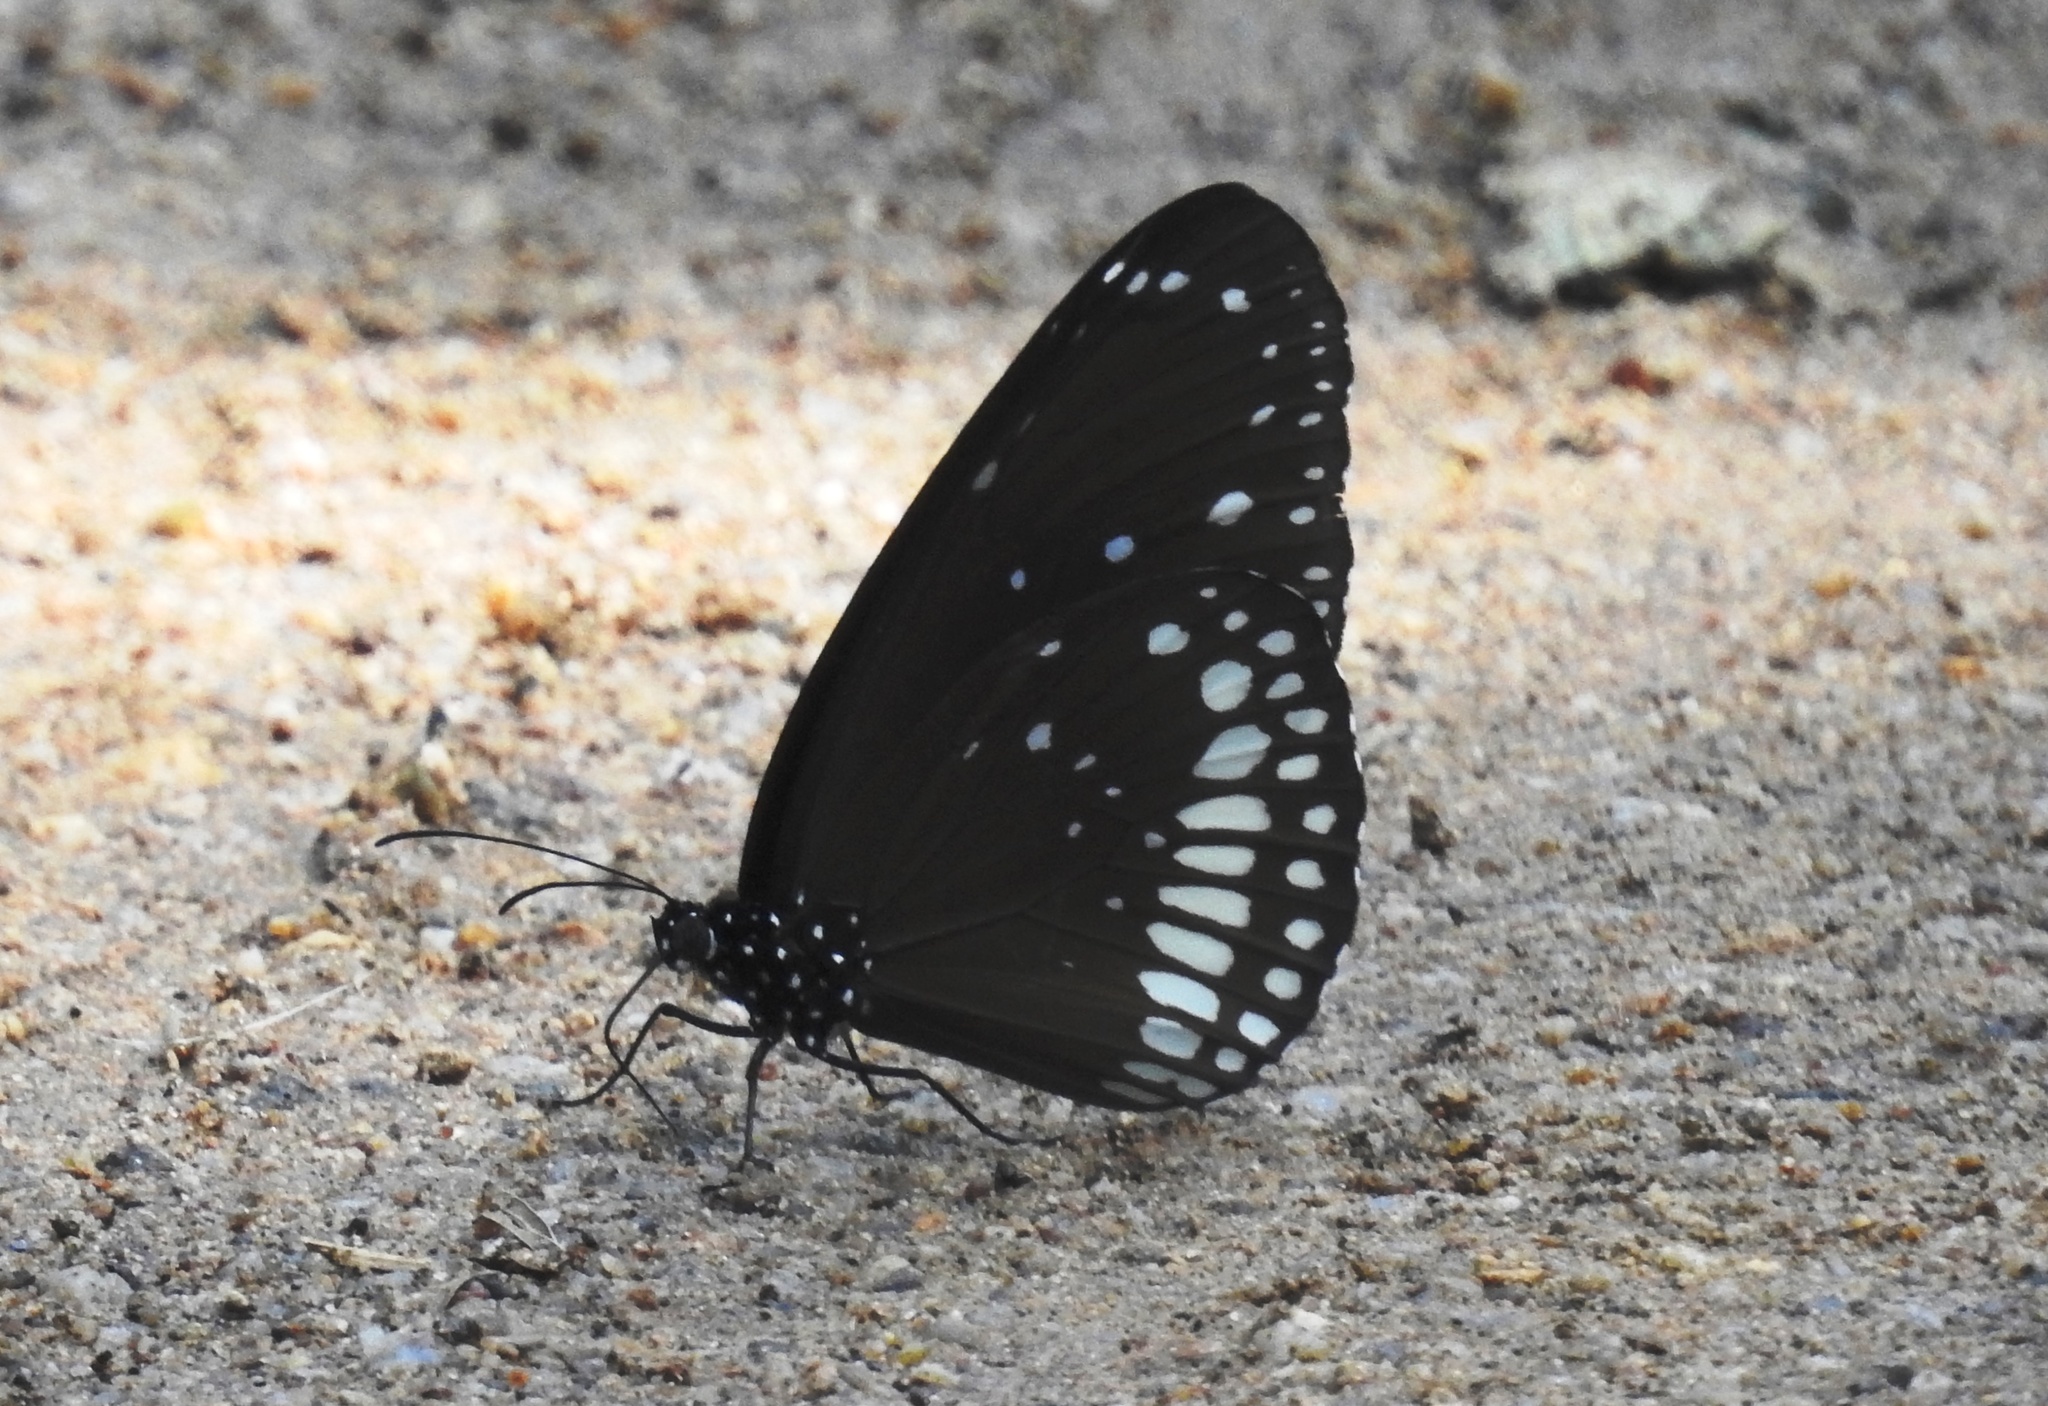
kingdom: Animalia
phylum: Arthropoda
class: Insecta
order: Lepidoptera
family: Nymphalidae
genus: Euploea
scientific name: Euploea core
